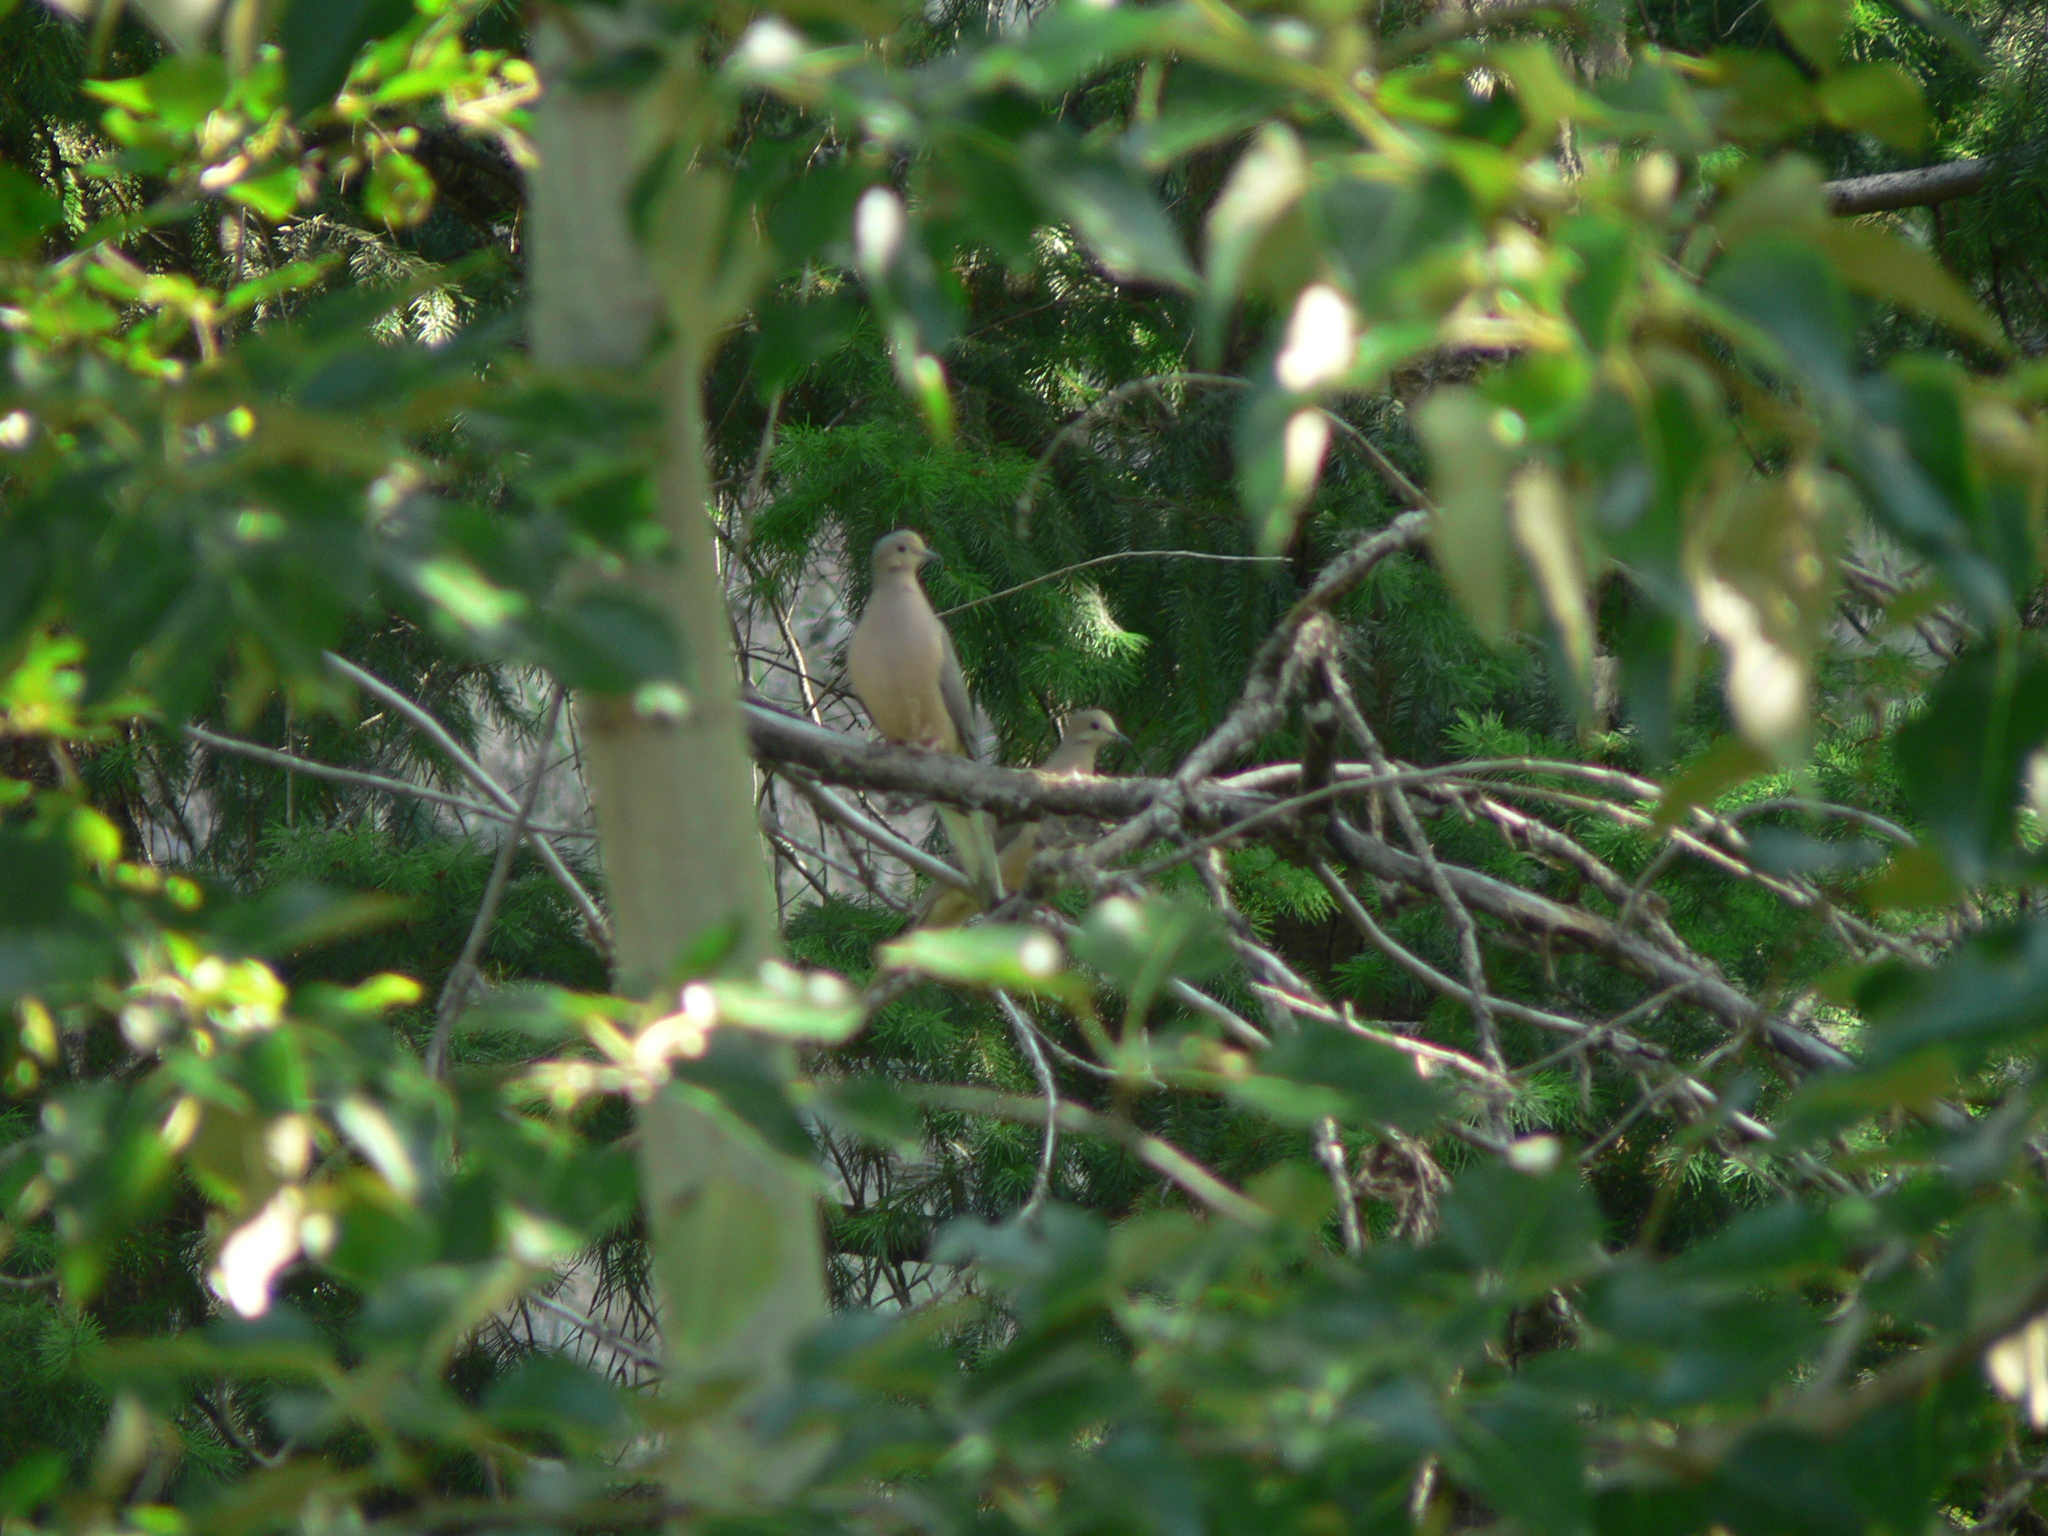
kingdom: Animalia
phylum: Chordata
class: Aves
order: Columbiformes
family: Columbidae
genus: Zenaida
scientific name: Zenaida macroura
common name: Mourning dove
